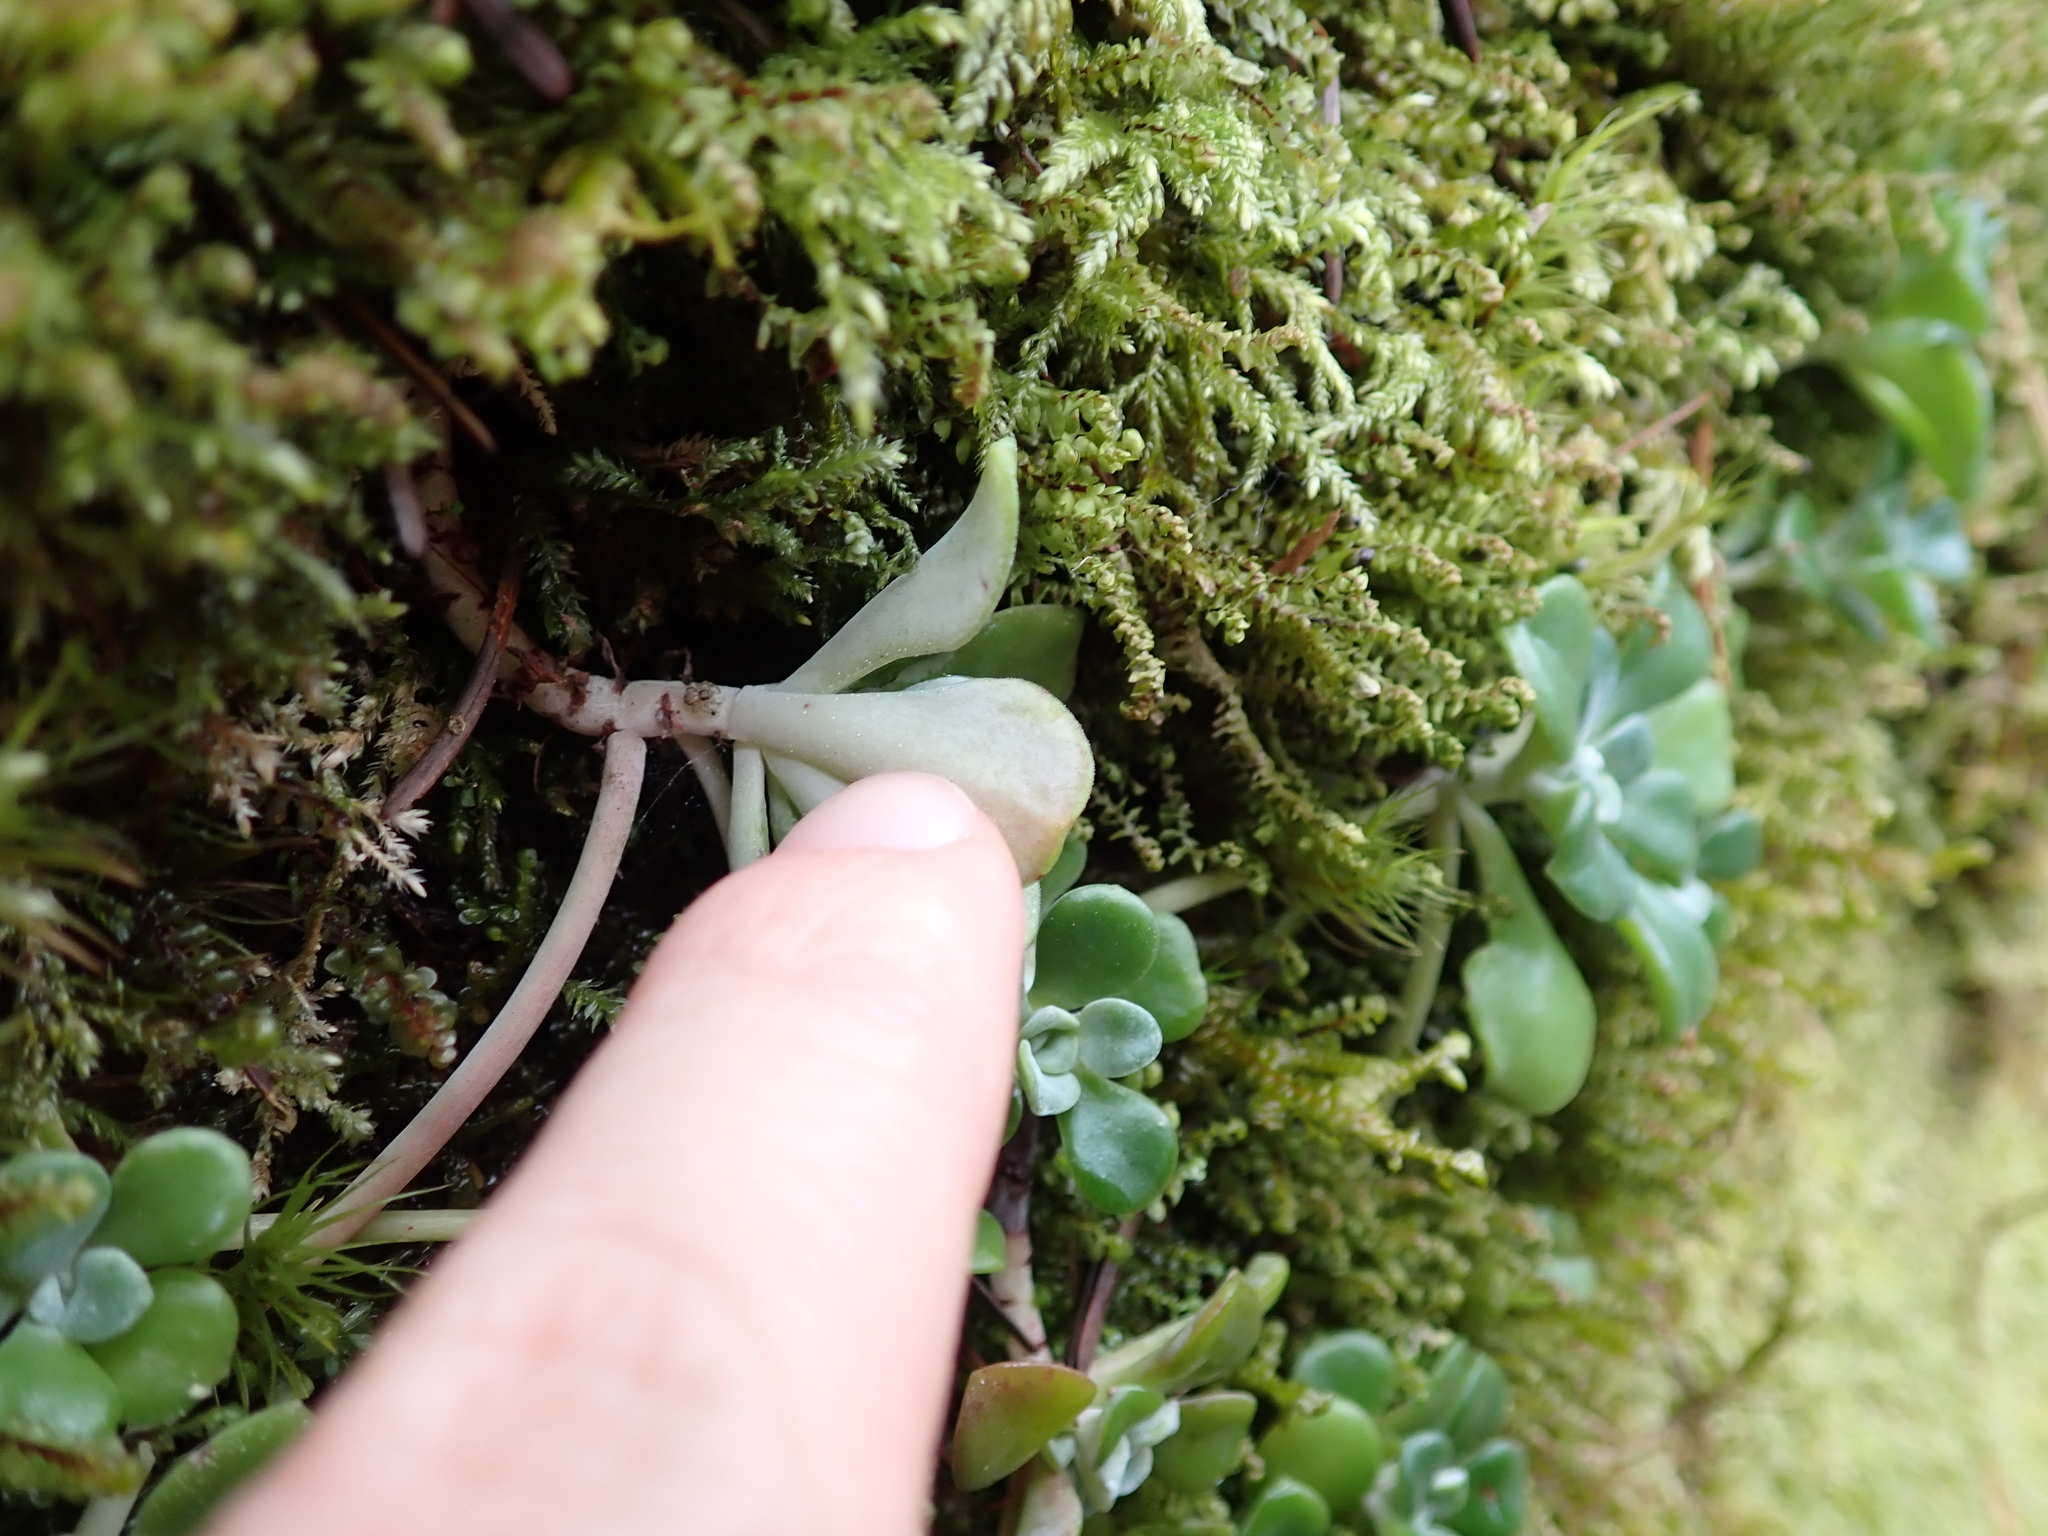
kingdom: Plantae
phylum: Tracheophyta
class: Magnoliopsida
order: Saxifragales
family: Crassulaceae
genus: Sedum
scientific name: Sedum spathulifolium
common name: Colorado stonecrop
